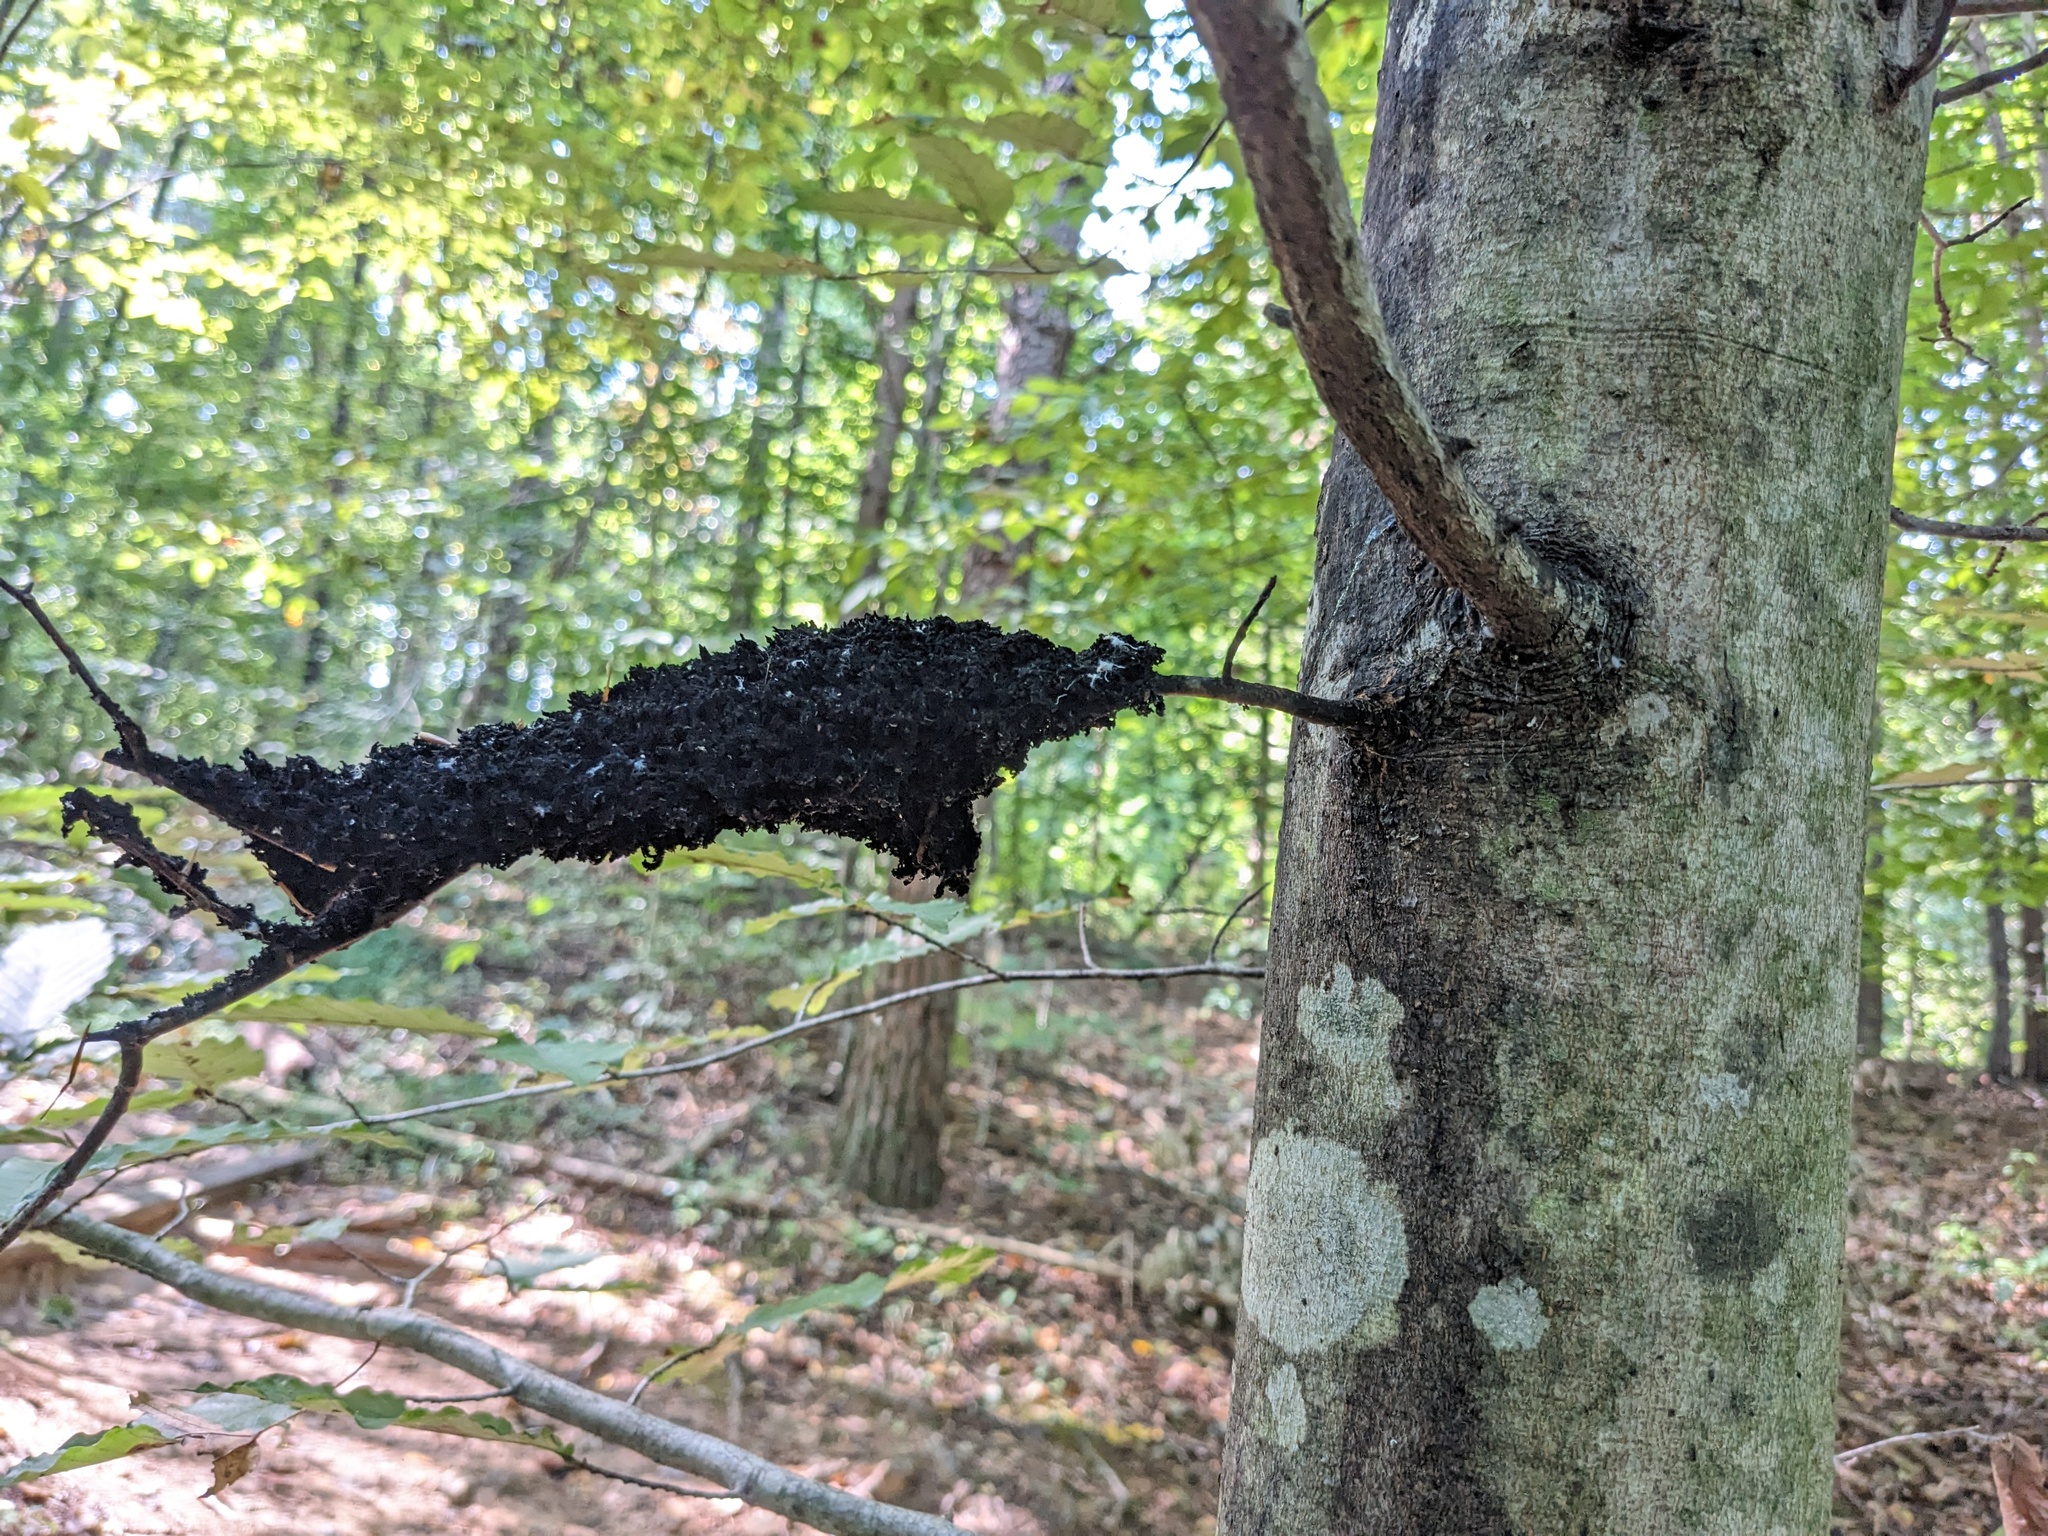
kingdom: Fungi
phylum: Ascomycota
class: Dothideomycetes
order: Capnodiales
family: Capnodiaceae
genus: Scorias
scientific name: Scorias spongiosa
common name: Black sooty mold
